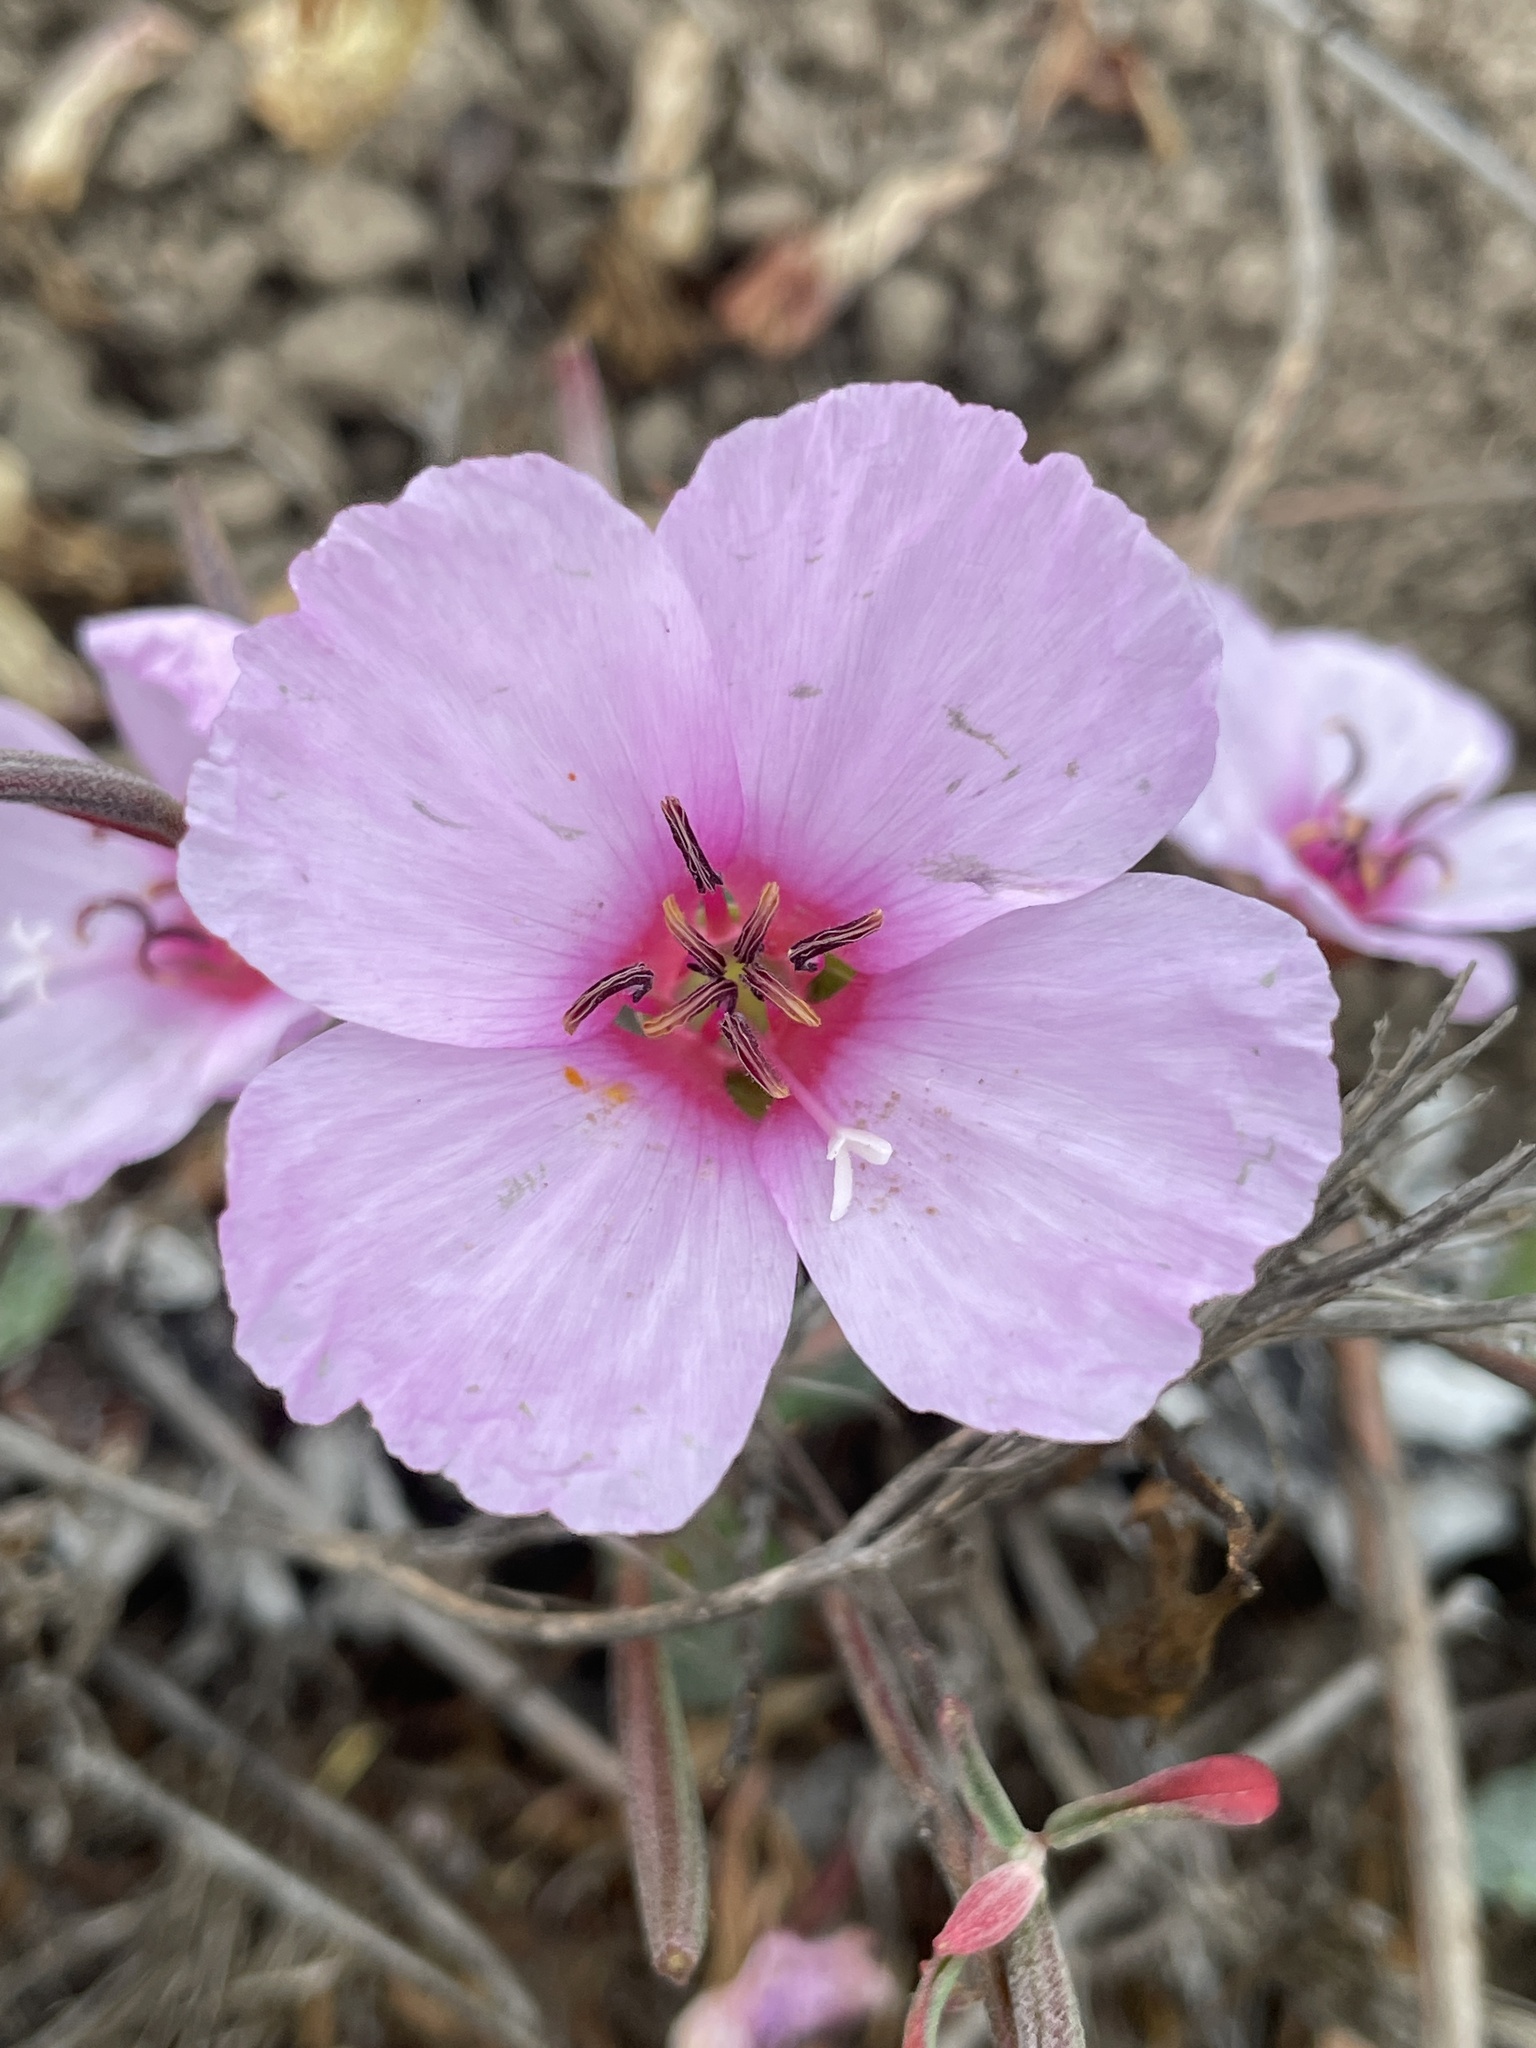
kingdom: Plantae
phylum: Tracheophyta
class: Magnoliopsida
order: Myrtales
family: Onagraceae
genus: Clarkia
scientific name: Clarkia rubicunda
